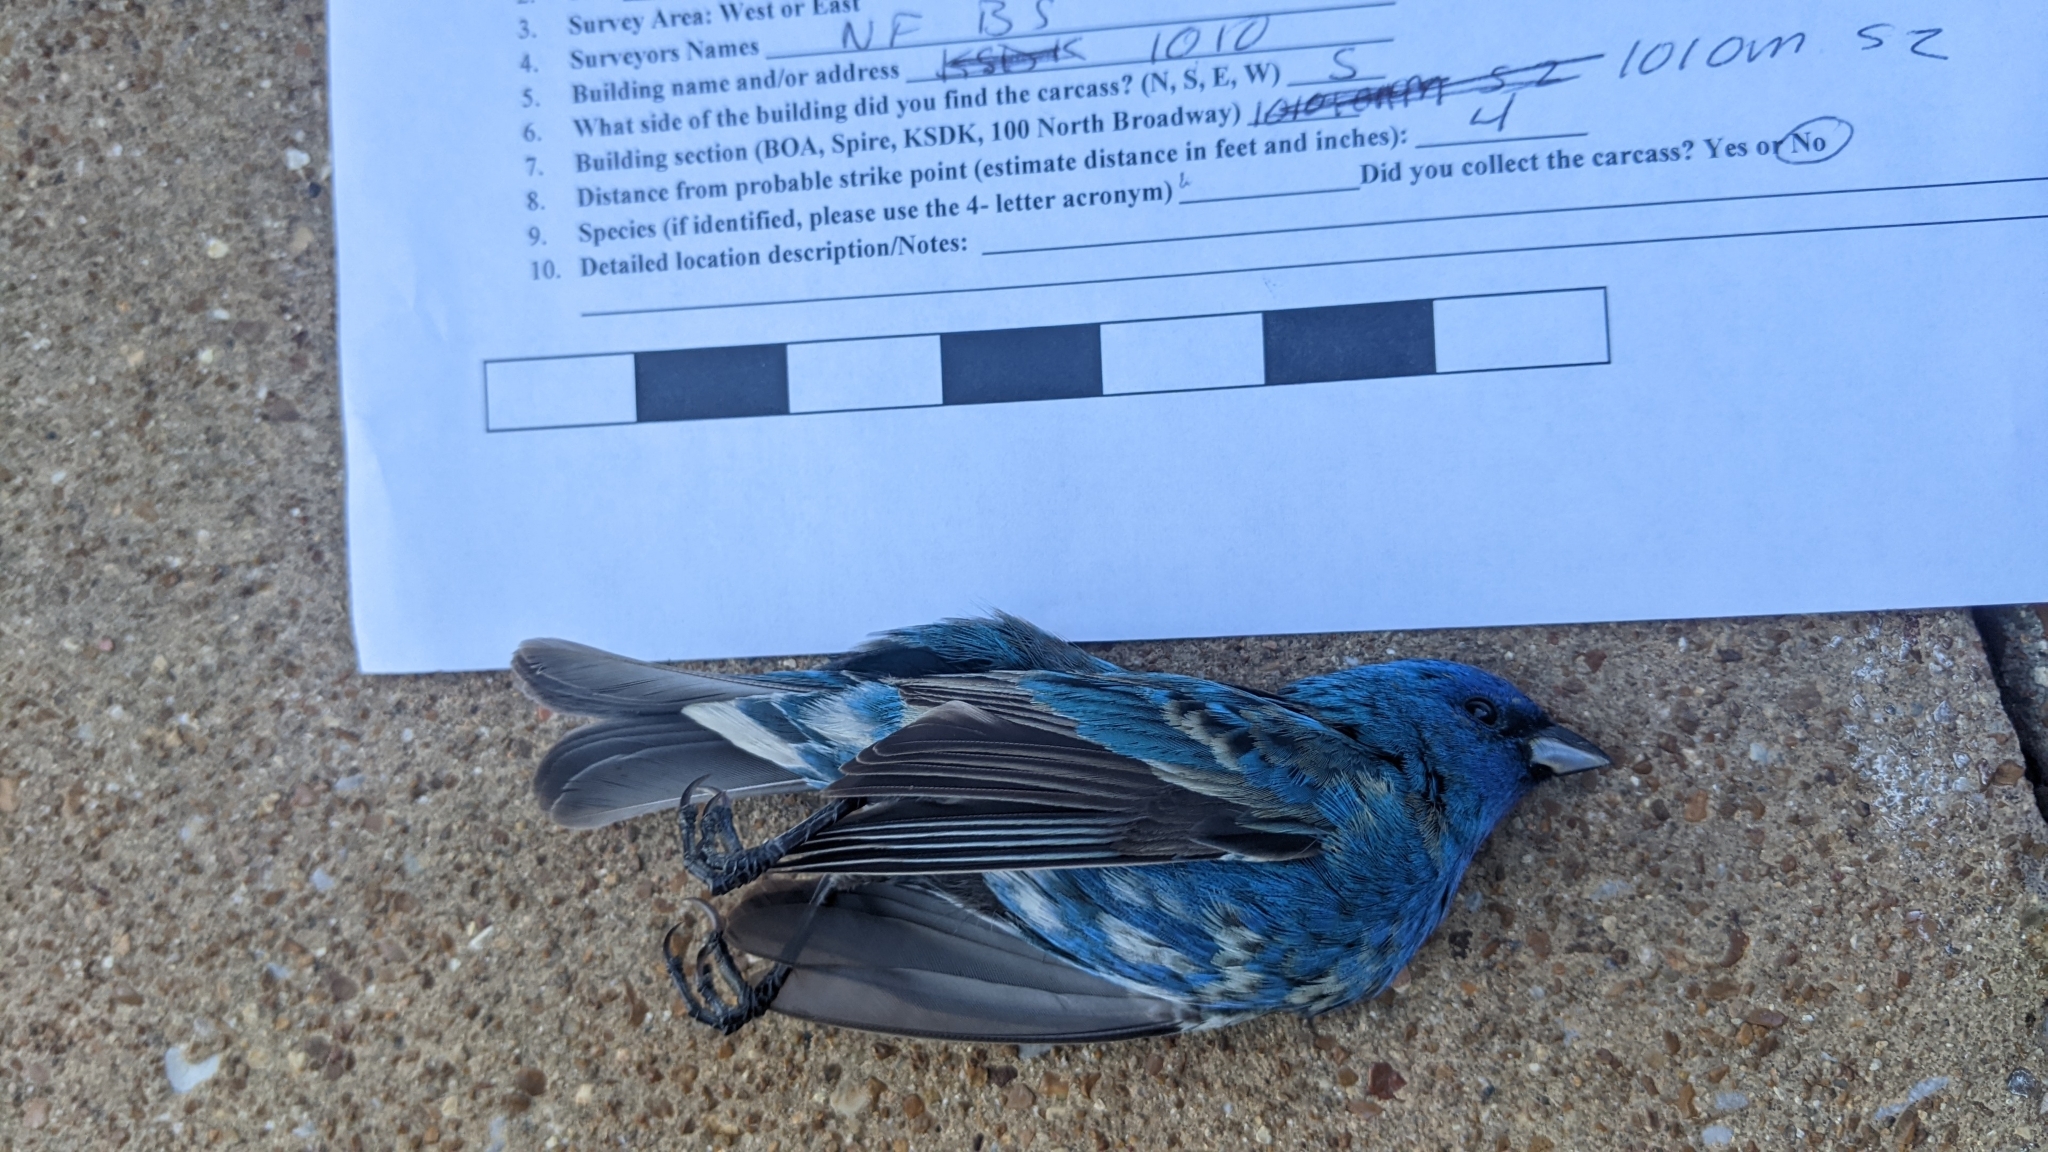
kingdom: Animalia
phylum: Chordata
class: Aves
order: Passeriformes
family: Cardinalidae
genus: Passerina
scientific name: Passerina cyanea
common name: Indigo bunting
